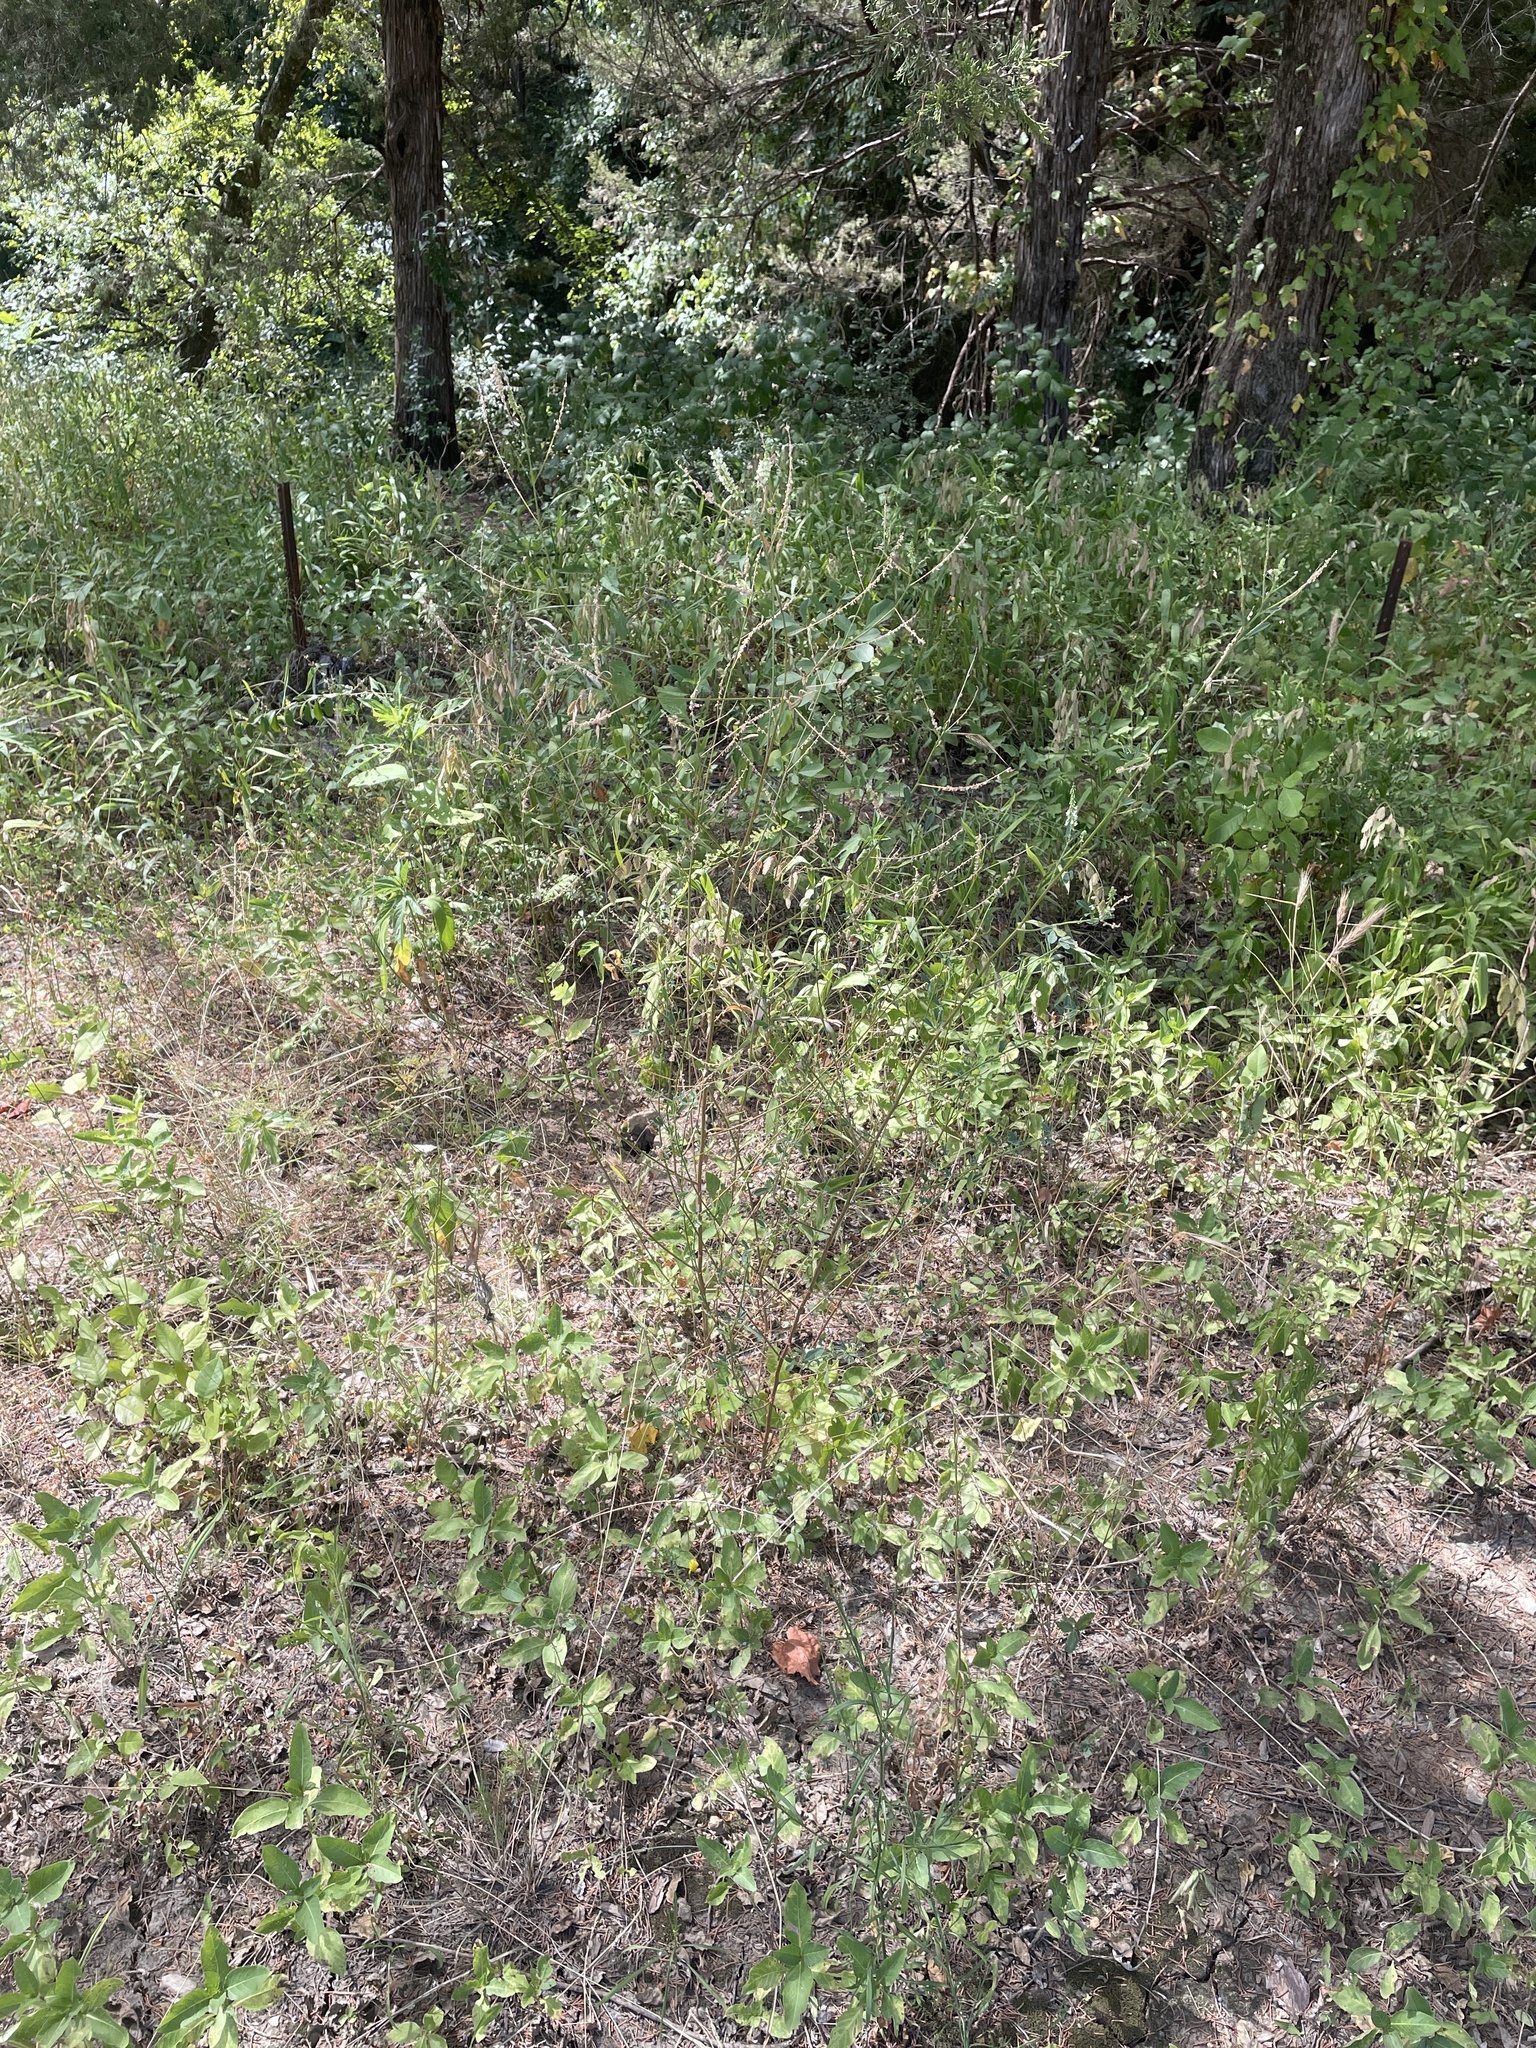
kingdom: Plantae
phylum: Tracheophyta
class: Magnoliopsida
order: Fabales
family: Fabaceae
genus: Melilotus
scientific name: Melilotus albus
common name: White melilot
